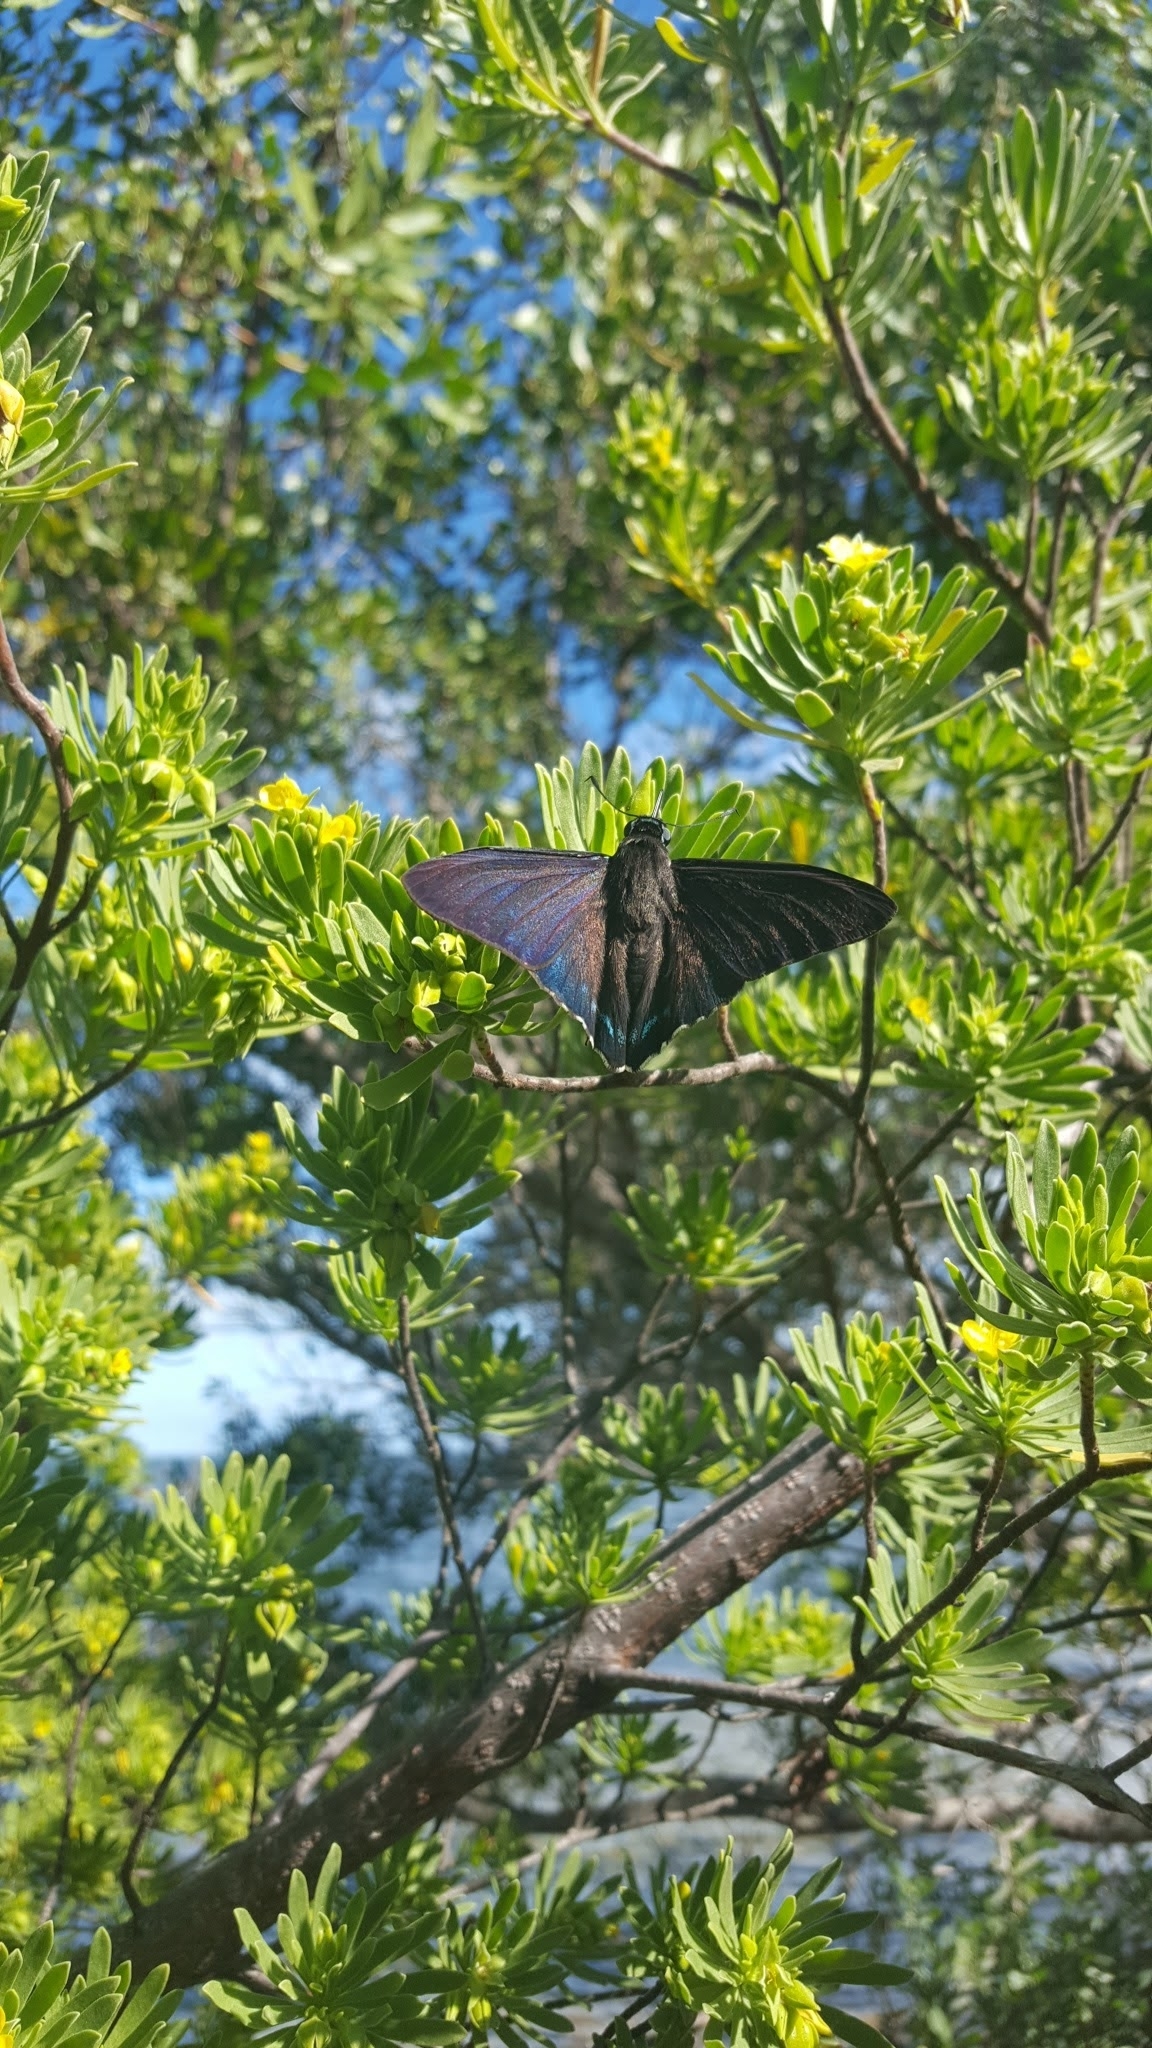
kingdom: Animalia
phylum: Arthropoda
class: Insecta
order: Lepidoptera
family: Hesperiidae
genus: Phocides
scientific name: Phocides pigmalion
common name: Mangrove skipper
